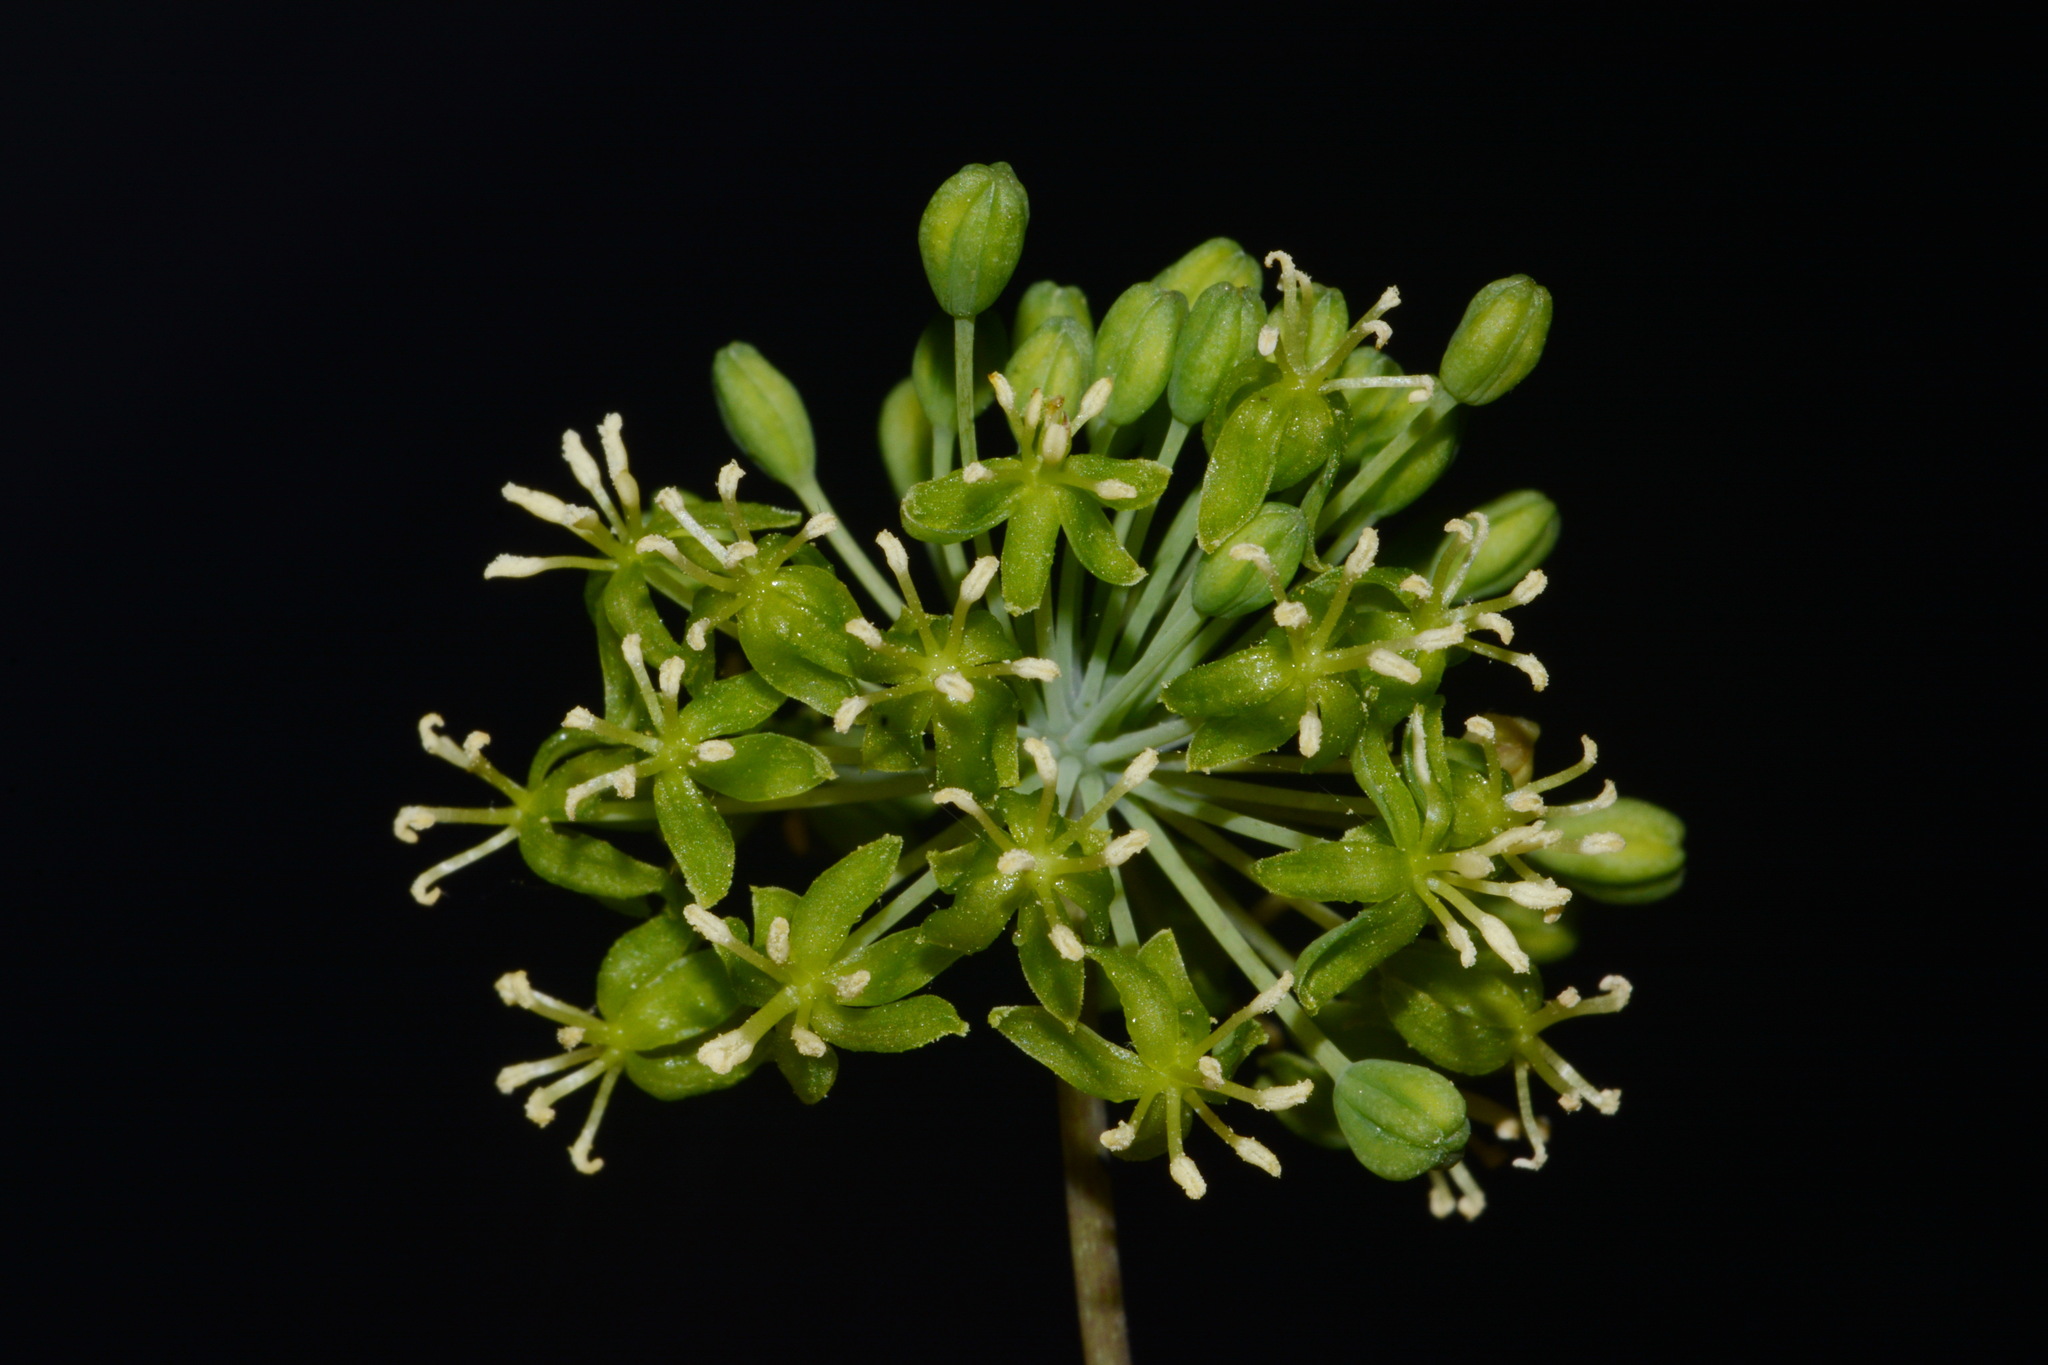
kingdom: Plantae
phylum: Tracheophyta
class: Liliopsida
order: Liliales
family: Smilacaceae
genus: Smilax
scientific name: Smilax herbacea
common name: Jacob's-ladder
